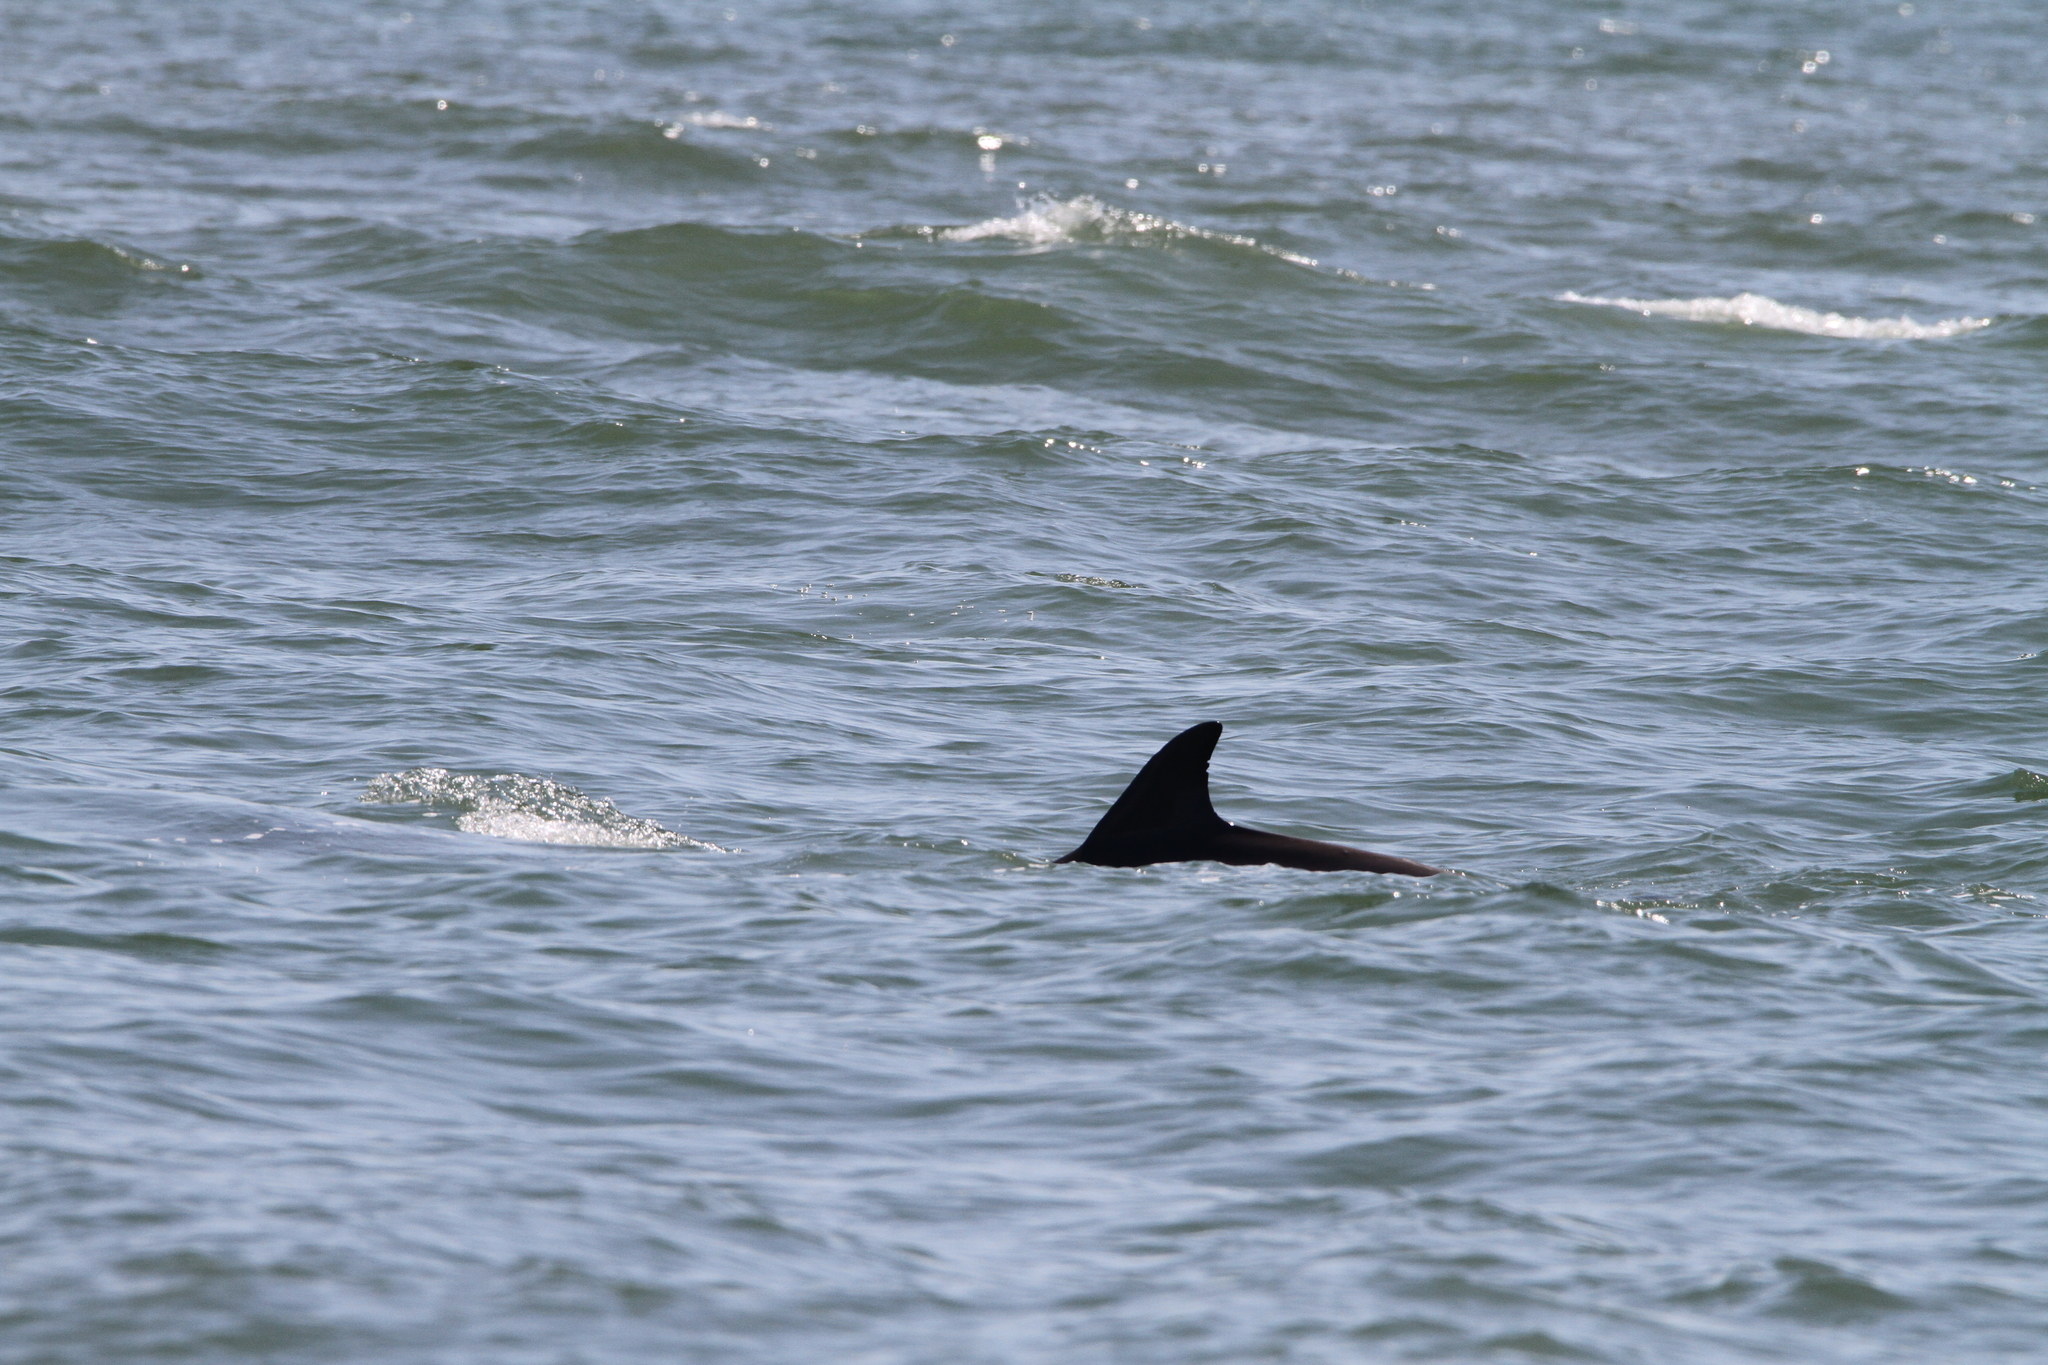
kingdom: Animalia
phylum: Chordata
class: Mammalia
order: Cetacea
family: Delphinidae
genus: Tursiops
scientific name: Tursiops truncatus
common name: Bottlenose dolphin
